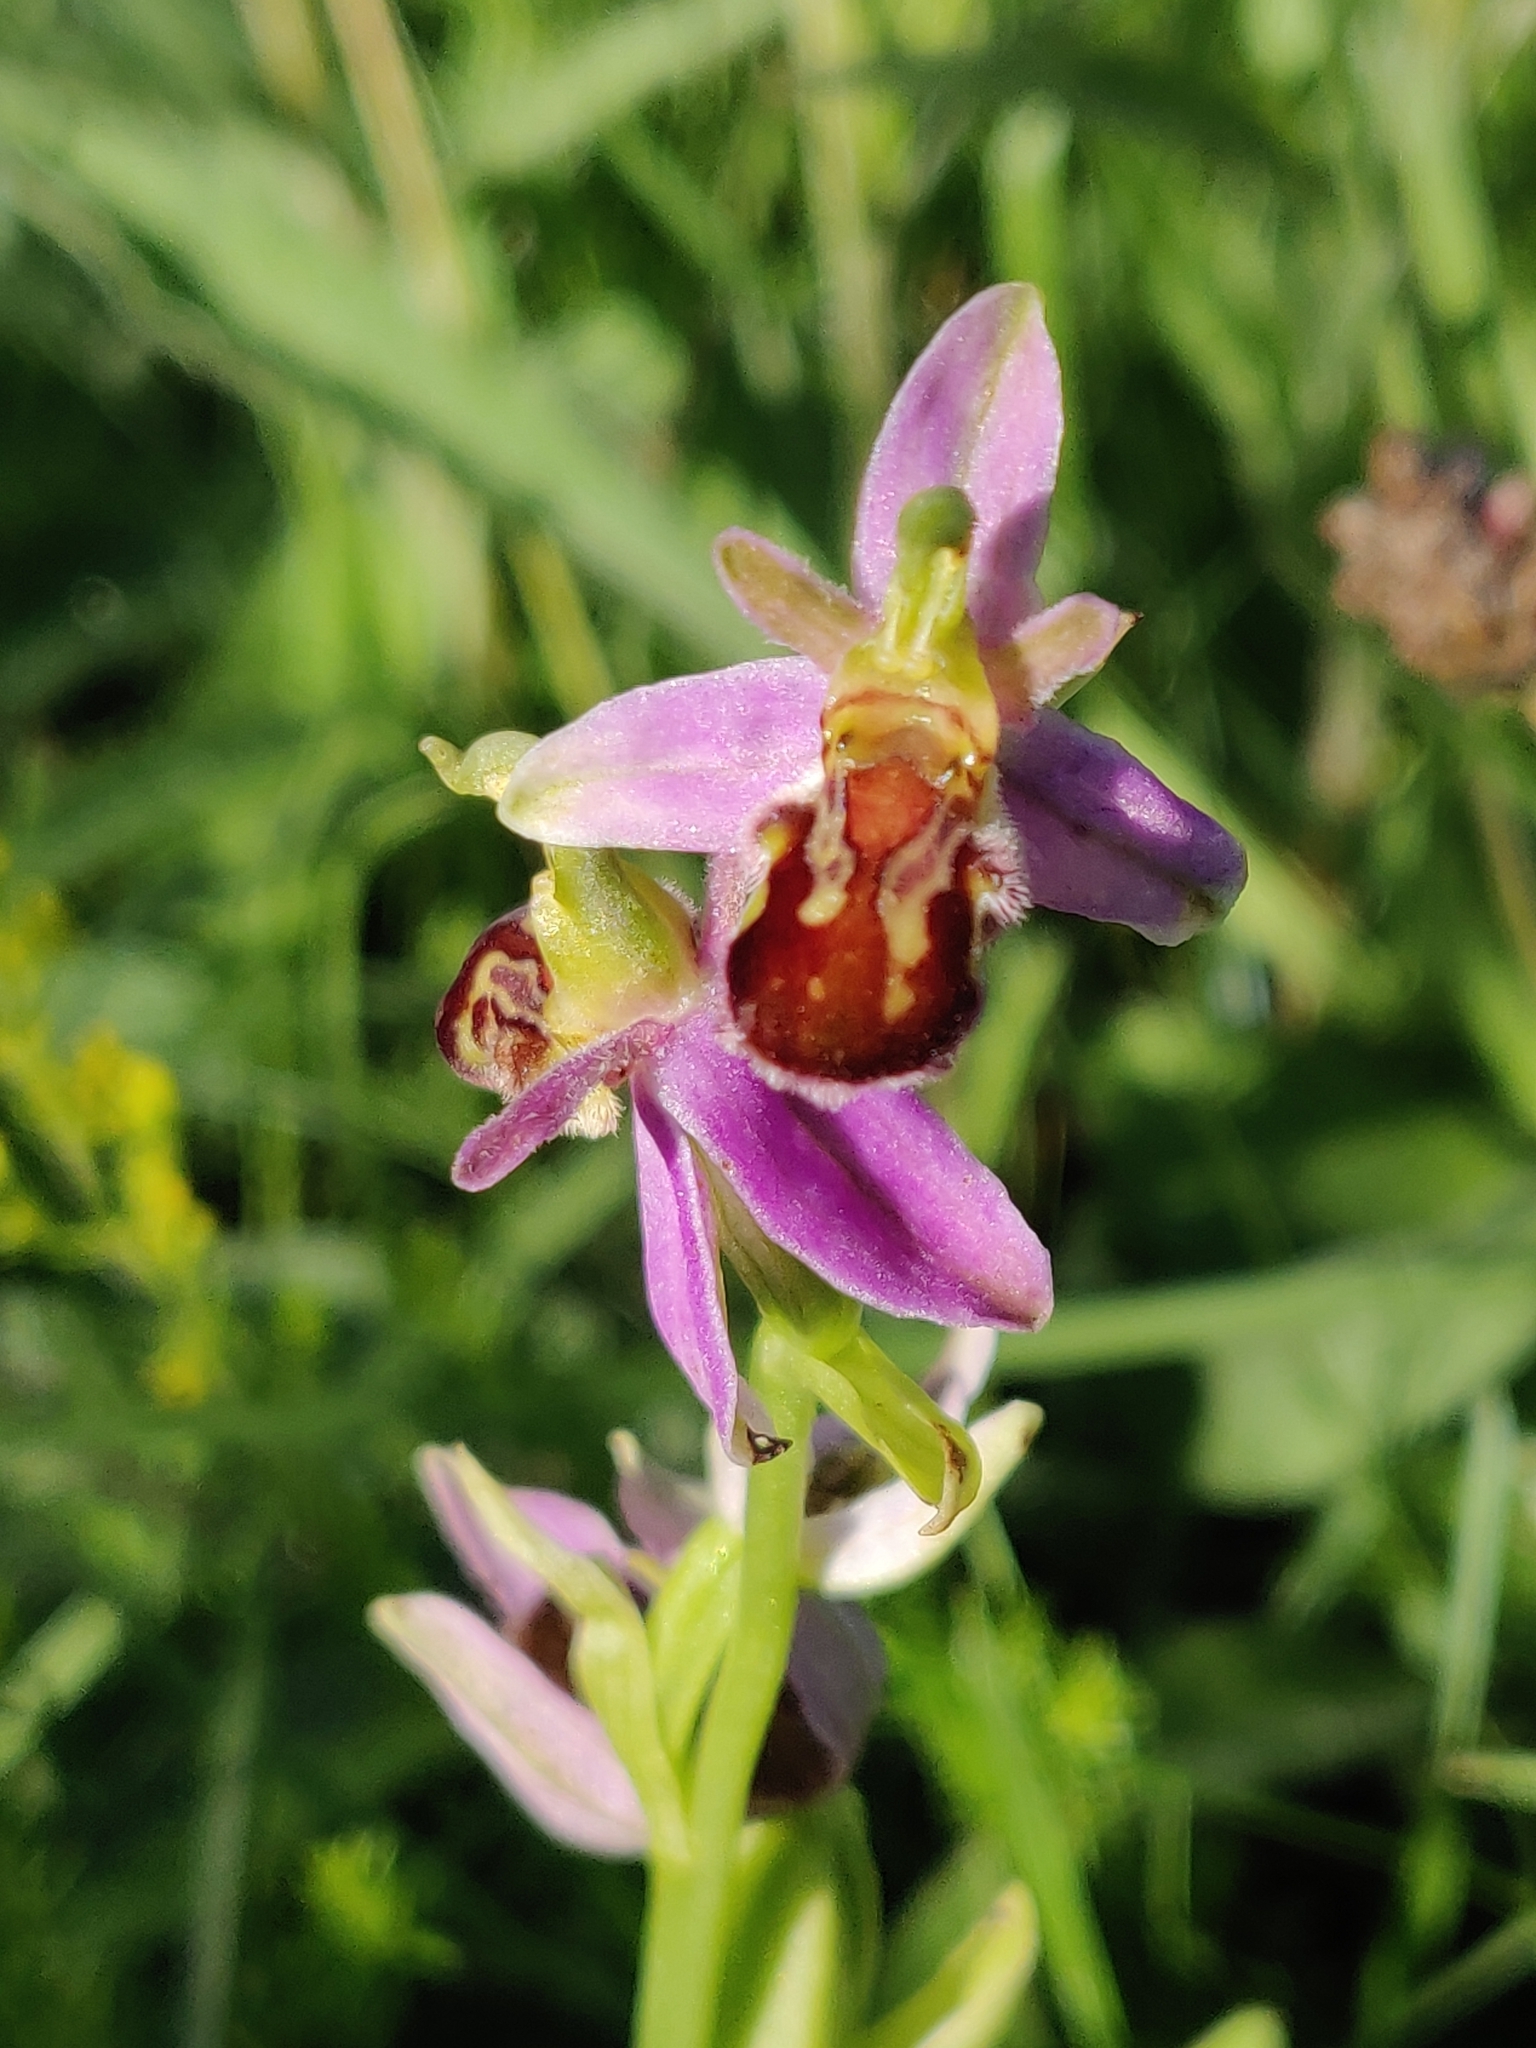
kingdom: Plantae
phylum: Tracheophyta
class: Liliopsida
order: Asparagales
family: Orchidaceae
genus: Ophrys
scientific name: Ophrys apifera
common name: Bee orchid
